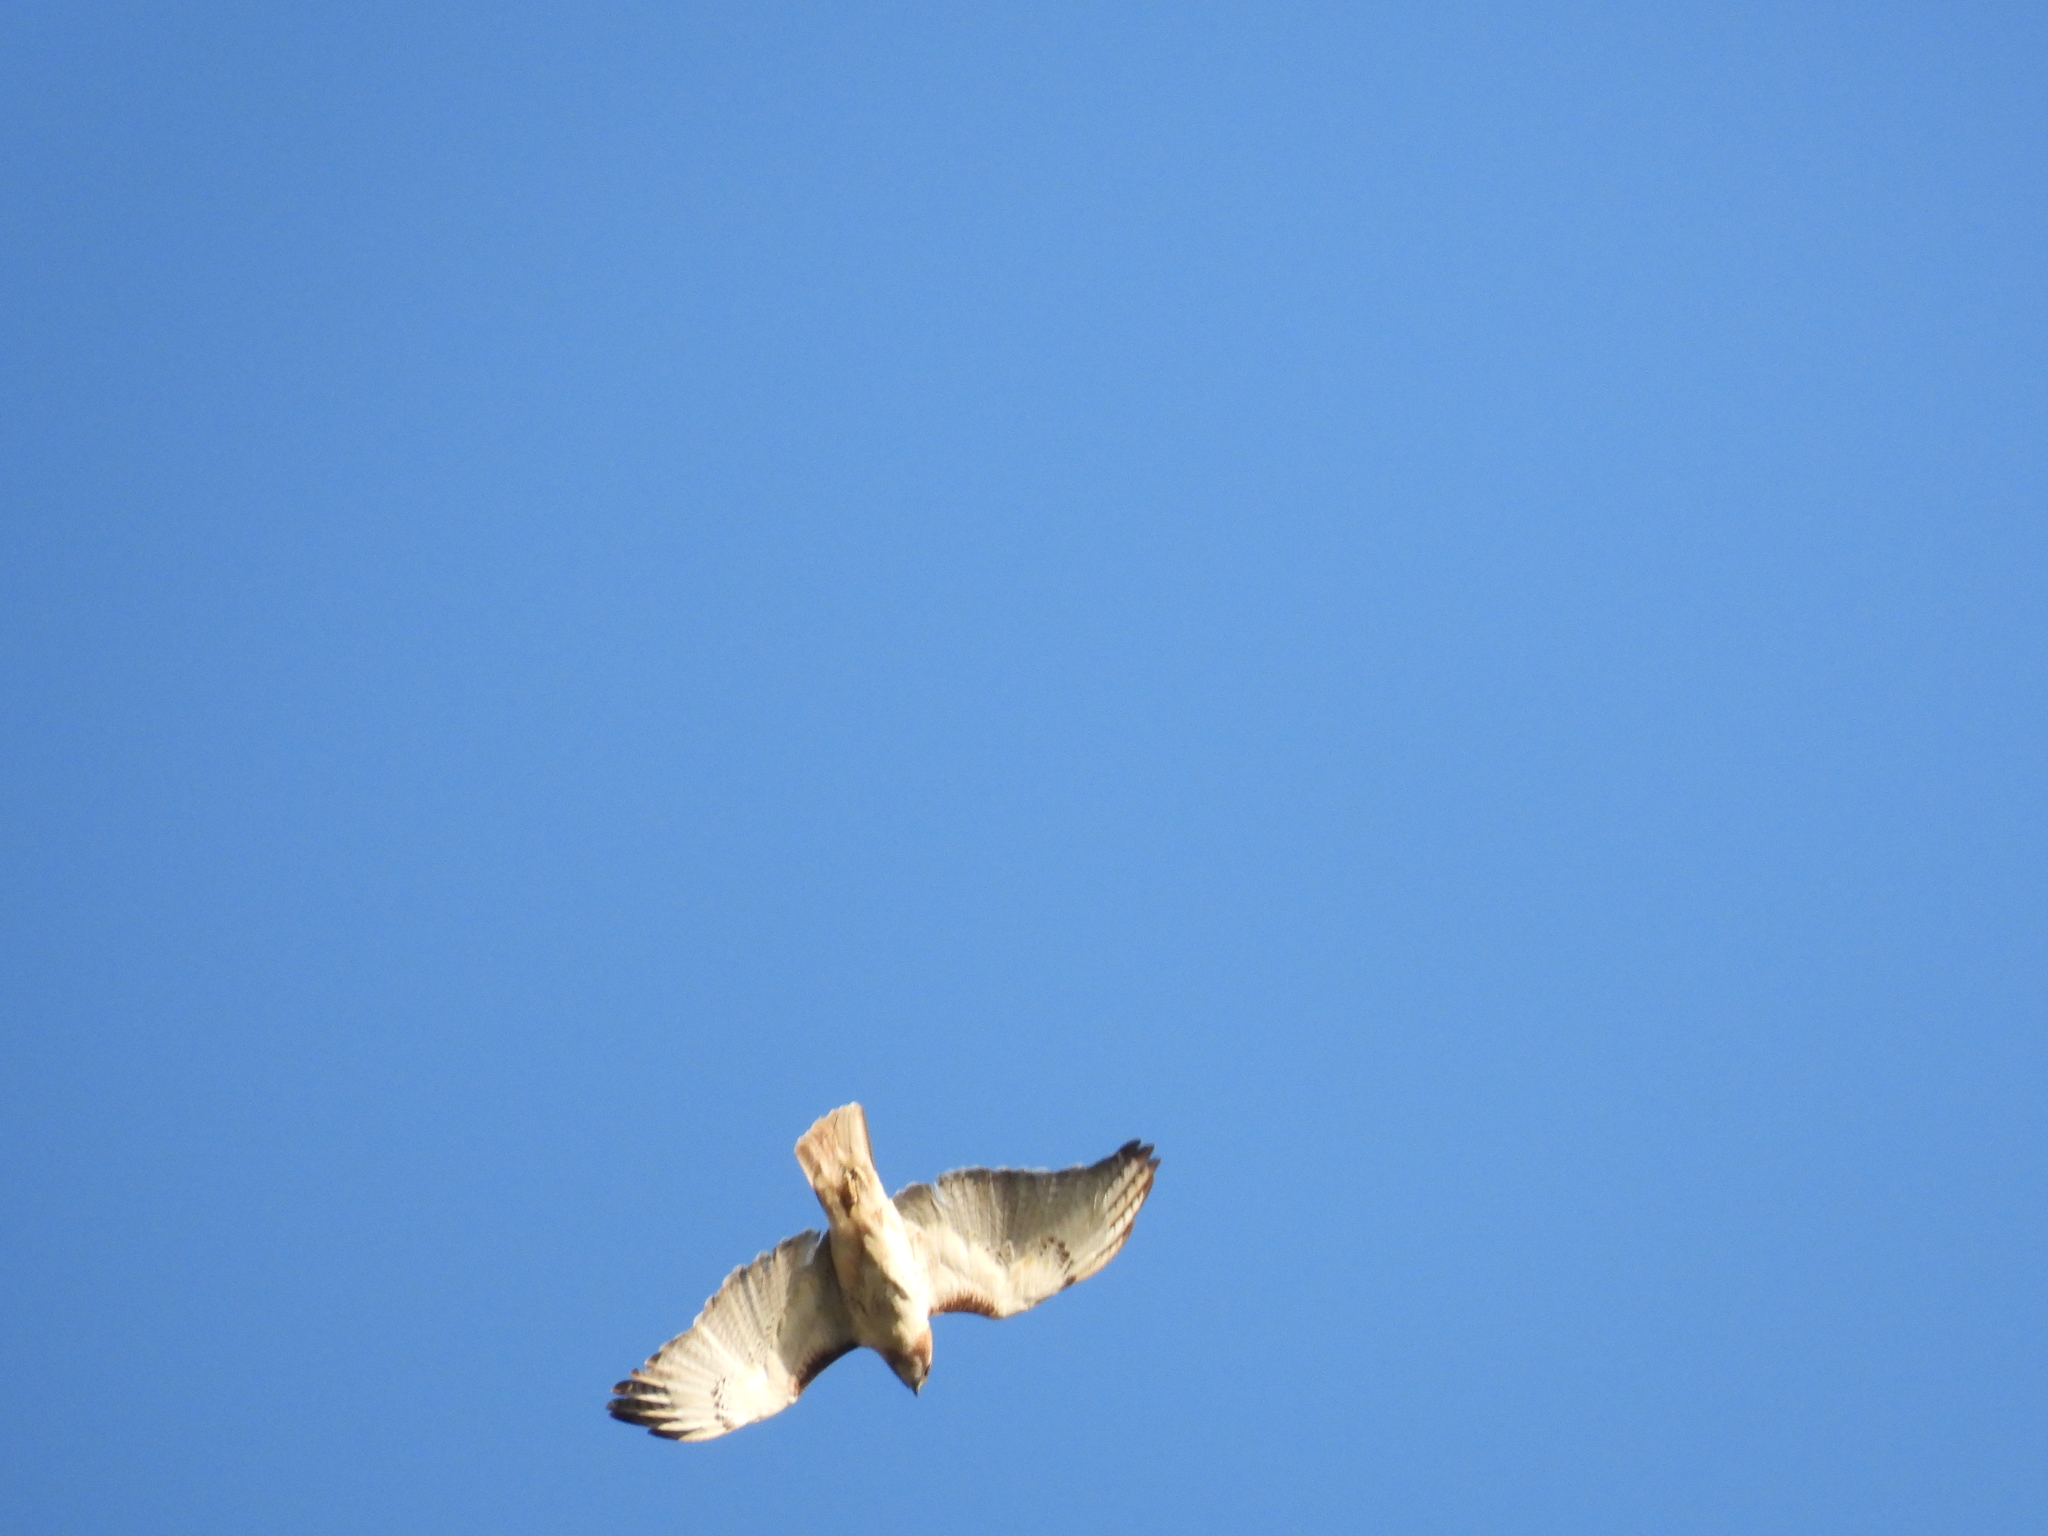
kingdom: Animalia
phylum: Chordata
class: Aves
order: Accipitriformes
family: Accipitridae
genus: Buteo
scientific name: Buteo jamaicensis
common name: Red-tailed hawk
